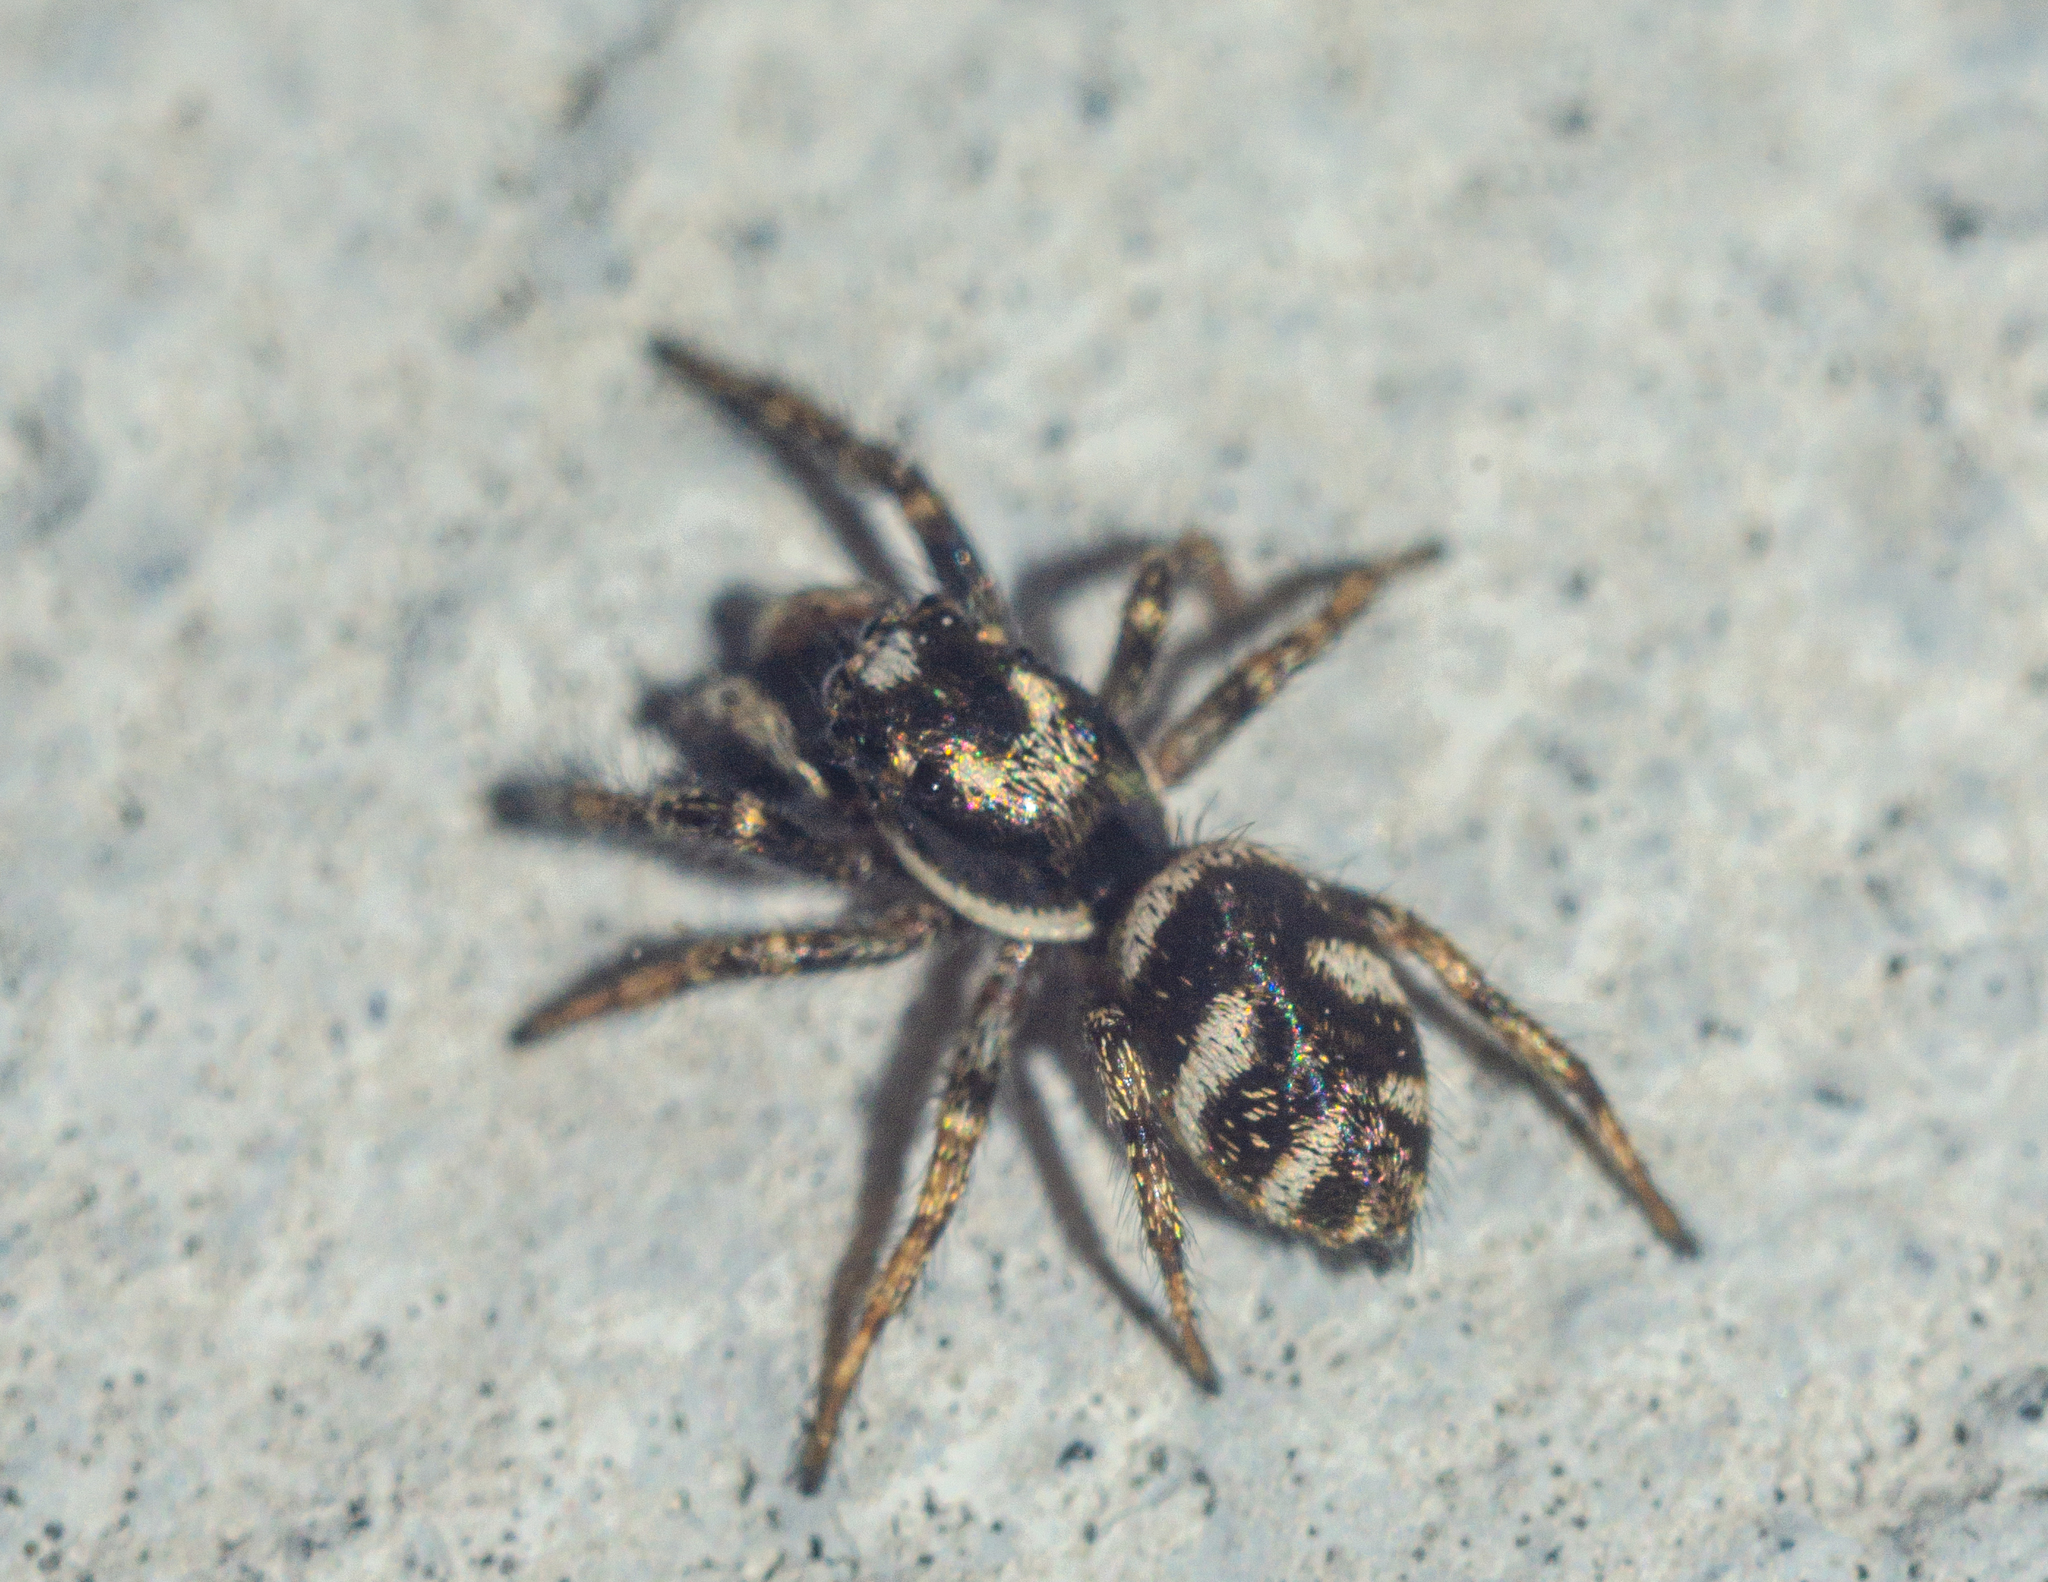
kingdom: Animalia
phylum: Arthropoda
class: Arachnida
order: Araneae
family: Salticidae
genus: Salticus
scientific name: Salticus scenicus
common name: Zebra jumper
